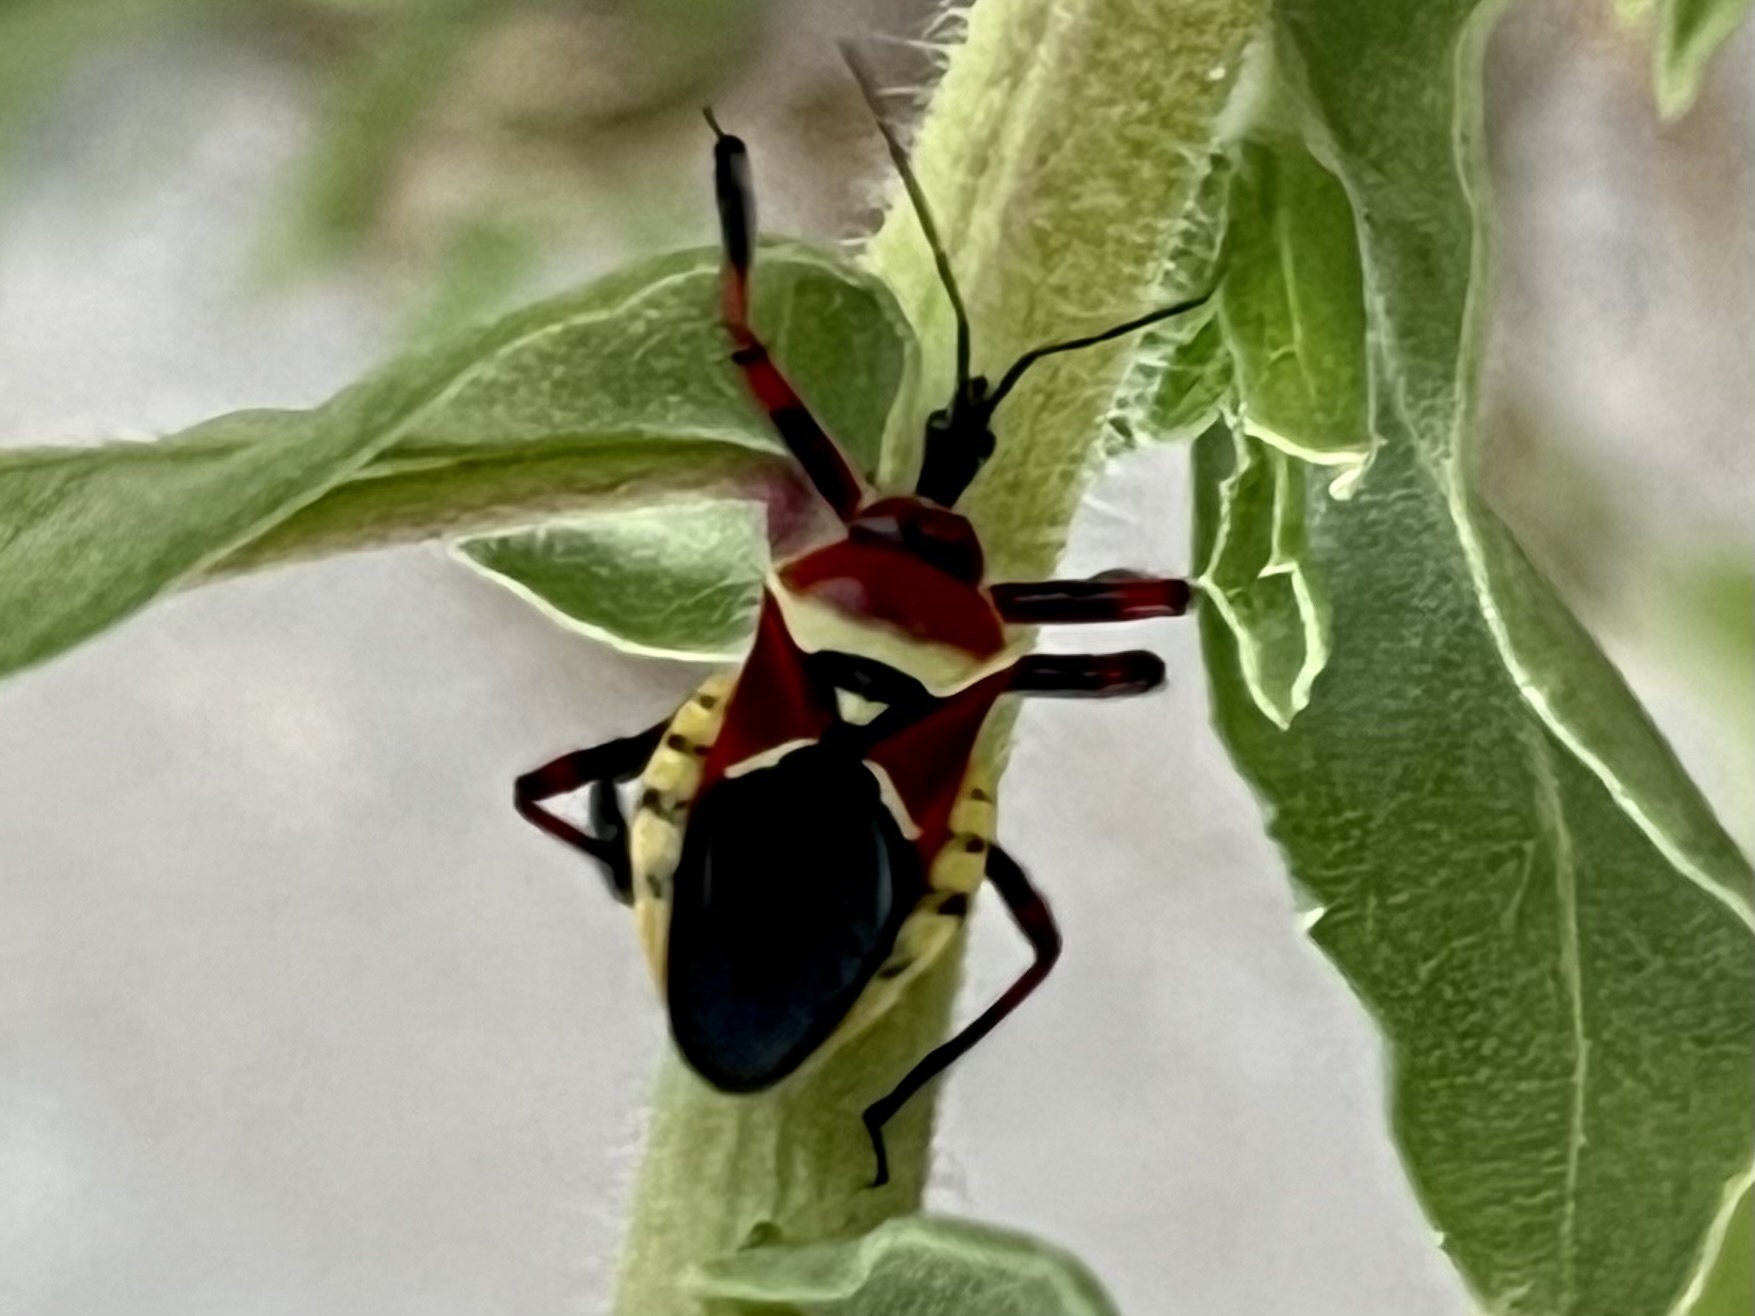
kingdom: Animalia
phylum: Arthropoda
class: Insecta
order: Hemiptera
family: Reduviidae
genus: Apiomerus
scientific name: Apiomerus flaviventris
